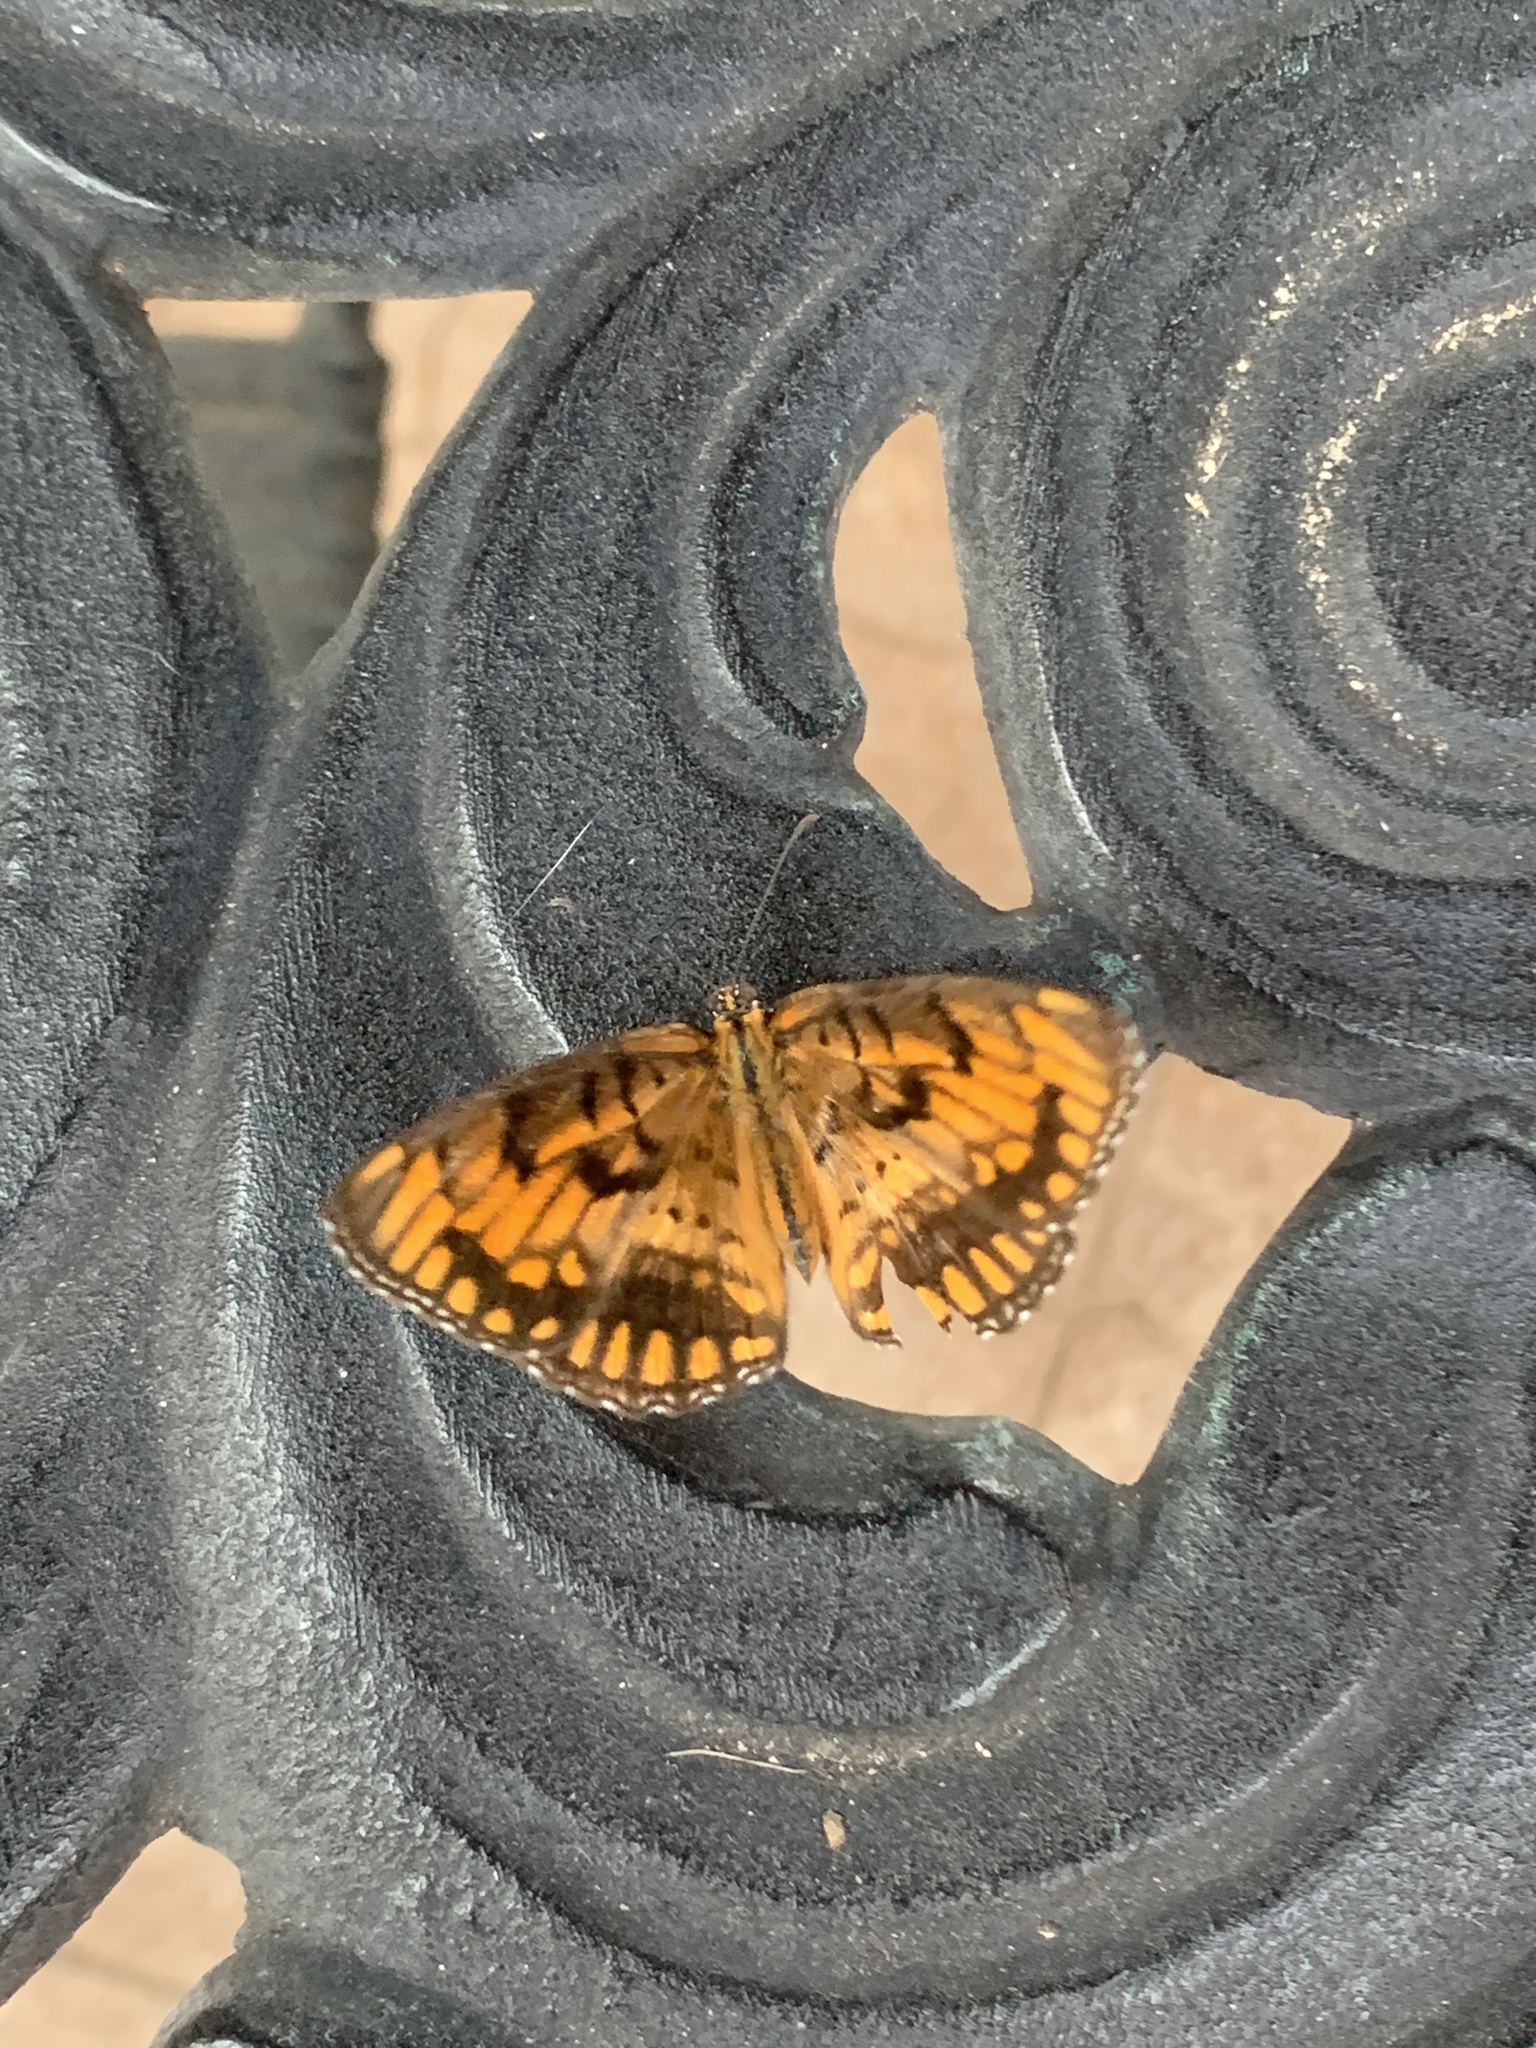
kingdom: Animalia
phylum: Arthropoda
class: Insecta
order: Lepidoptera
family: Nymphalidae
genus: Byblia
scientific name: Byblia ilithyia
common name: Spotted joker
